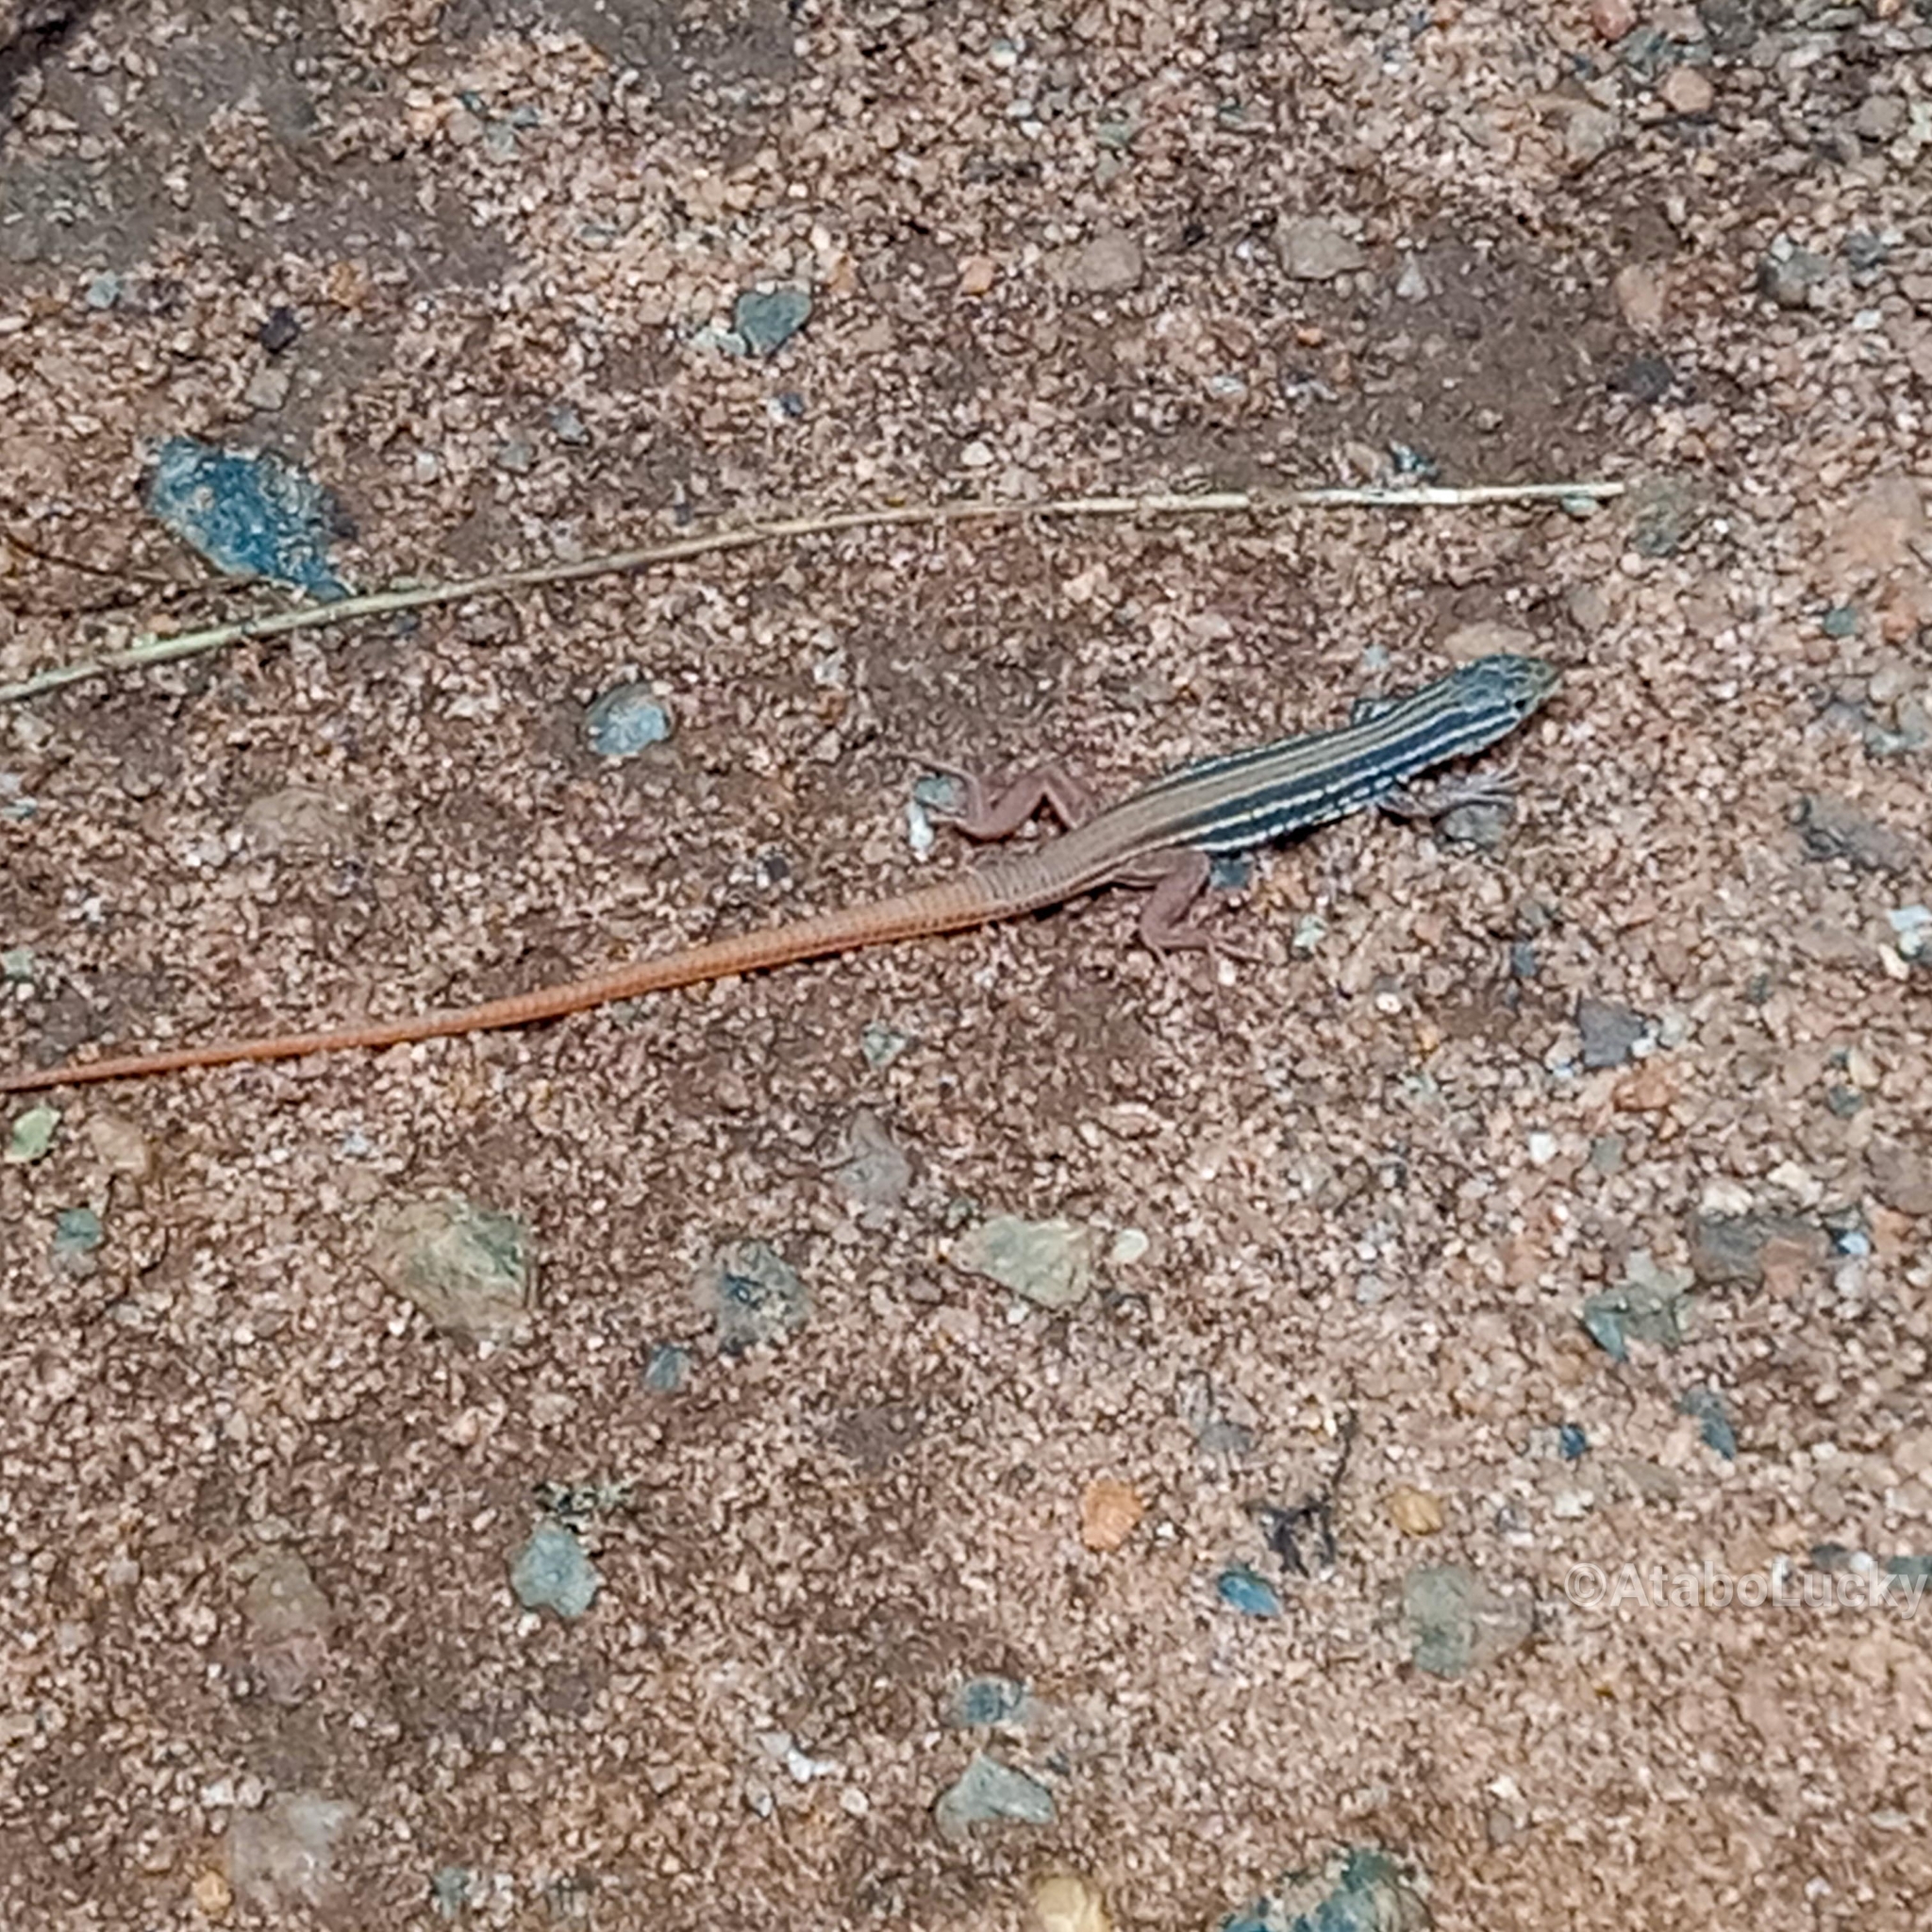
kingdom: Animalia
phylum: Chordata
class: Squamata
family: Lacertidae
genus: Heliobolus
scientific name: Heliobolus nitidus
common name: Glittering sand lizard
